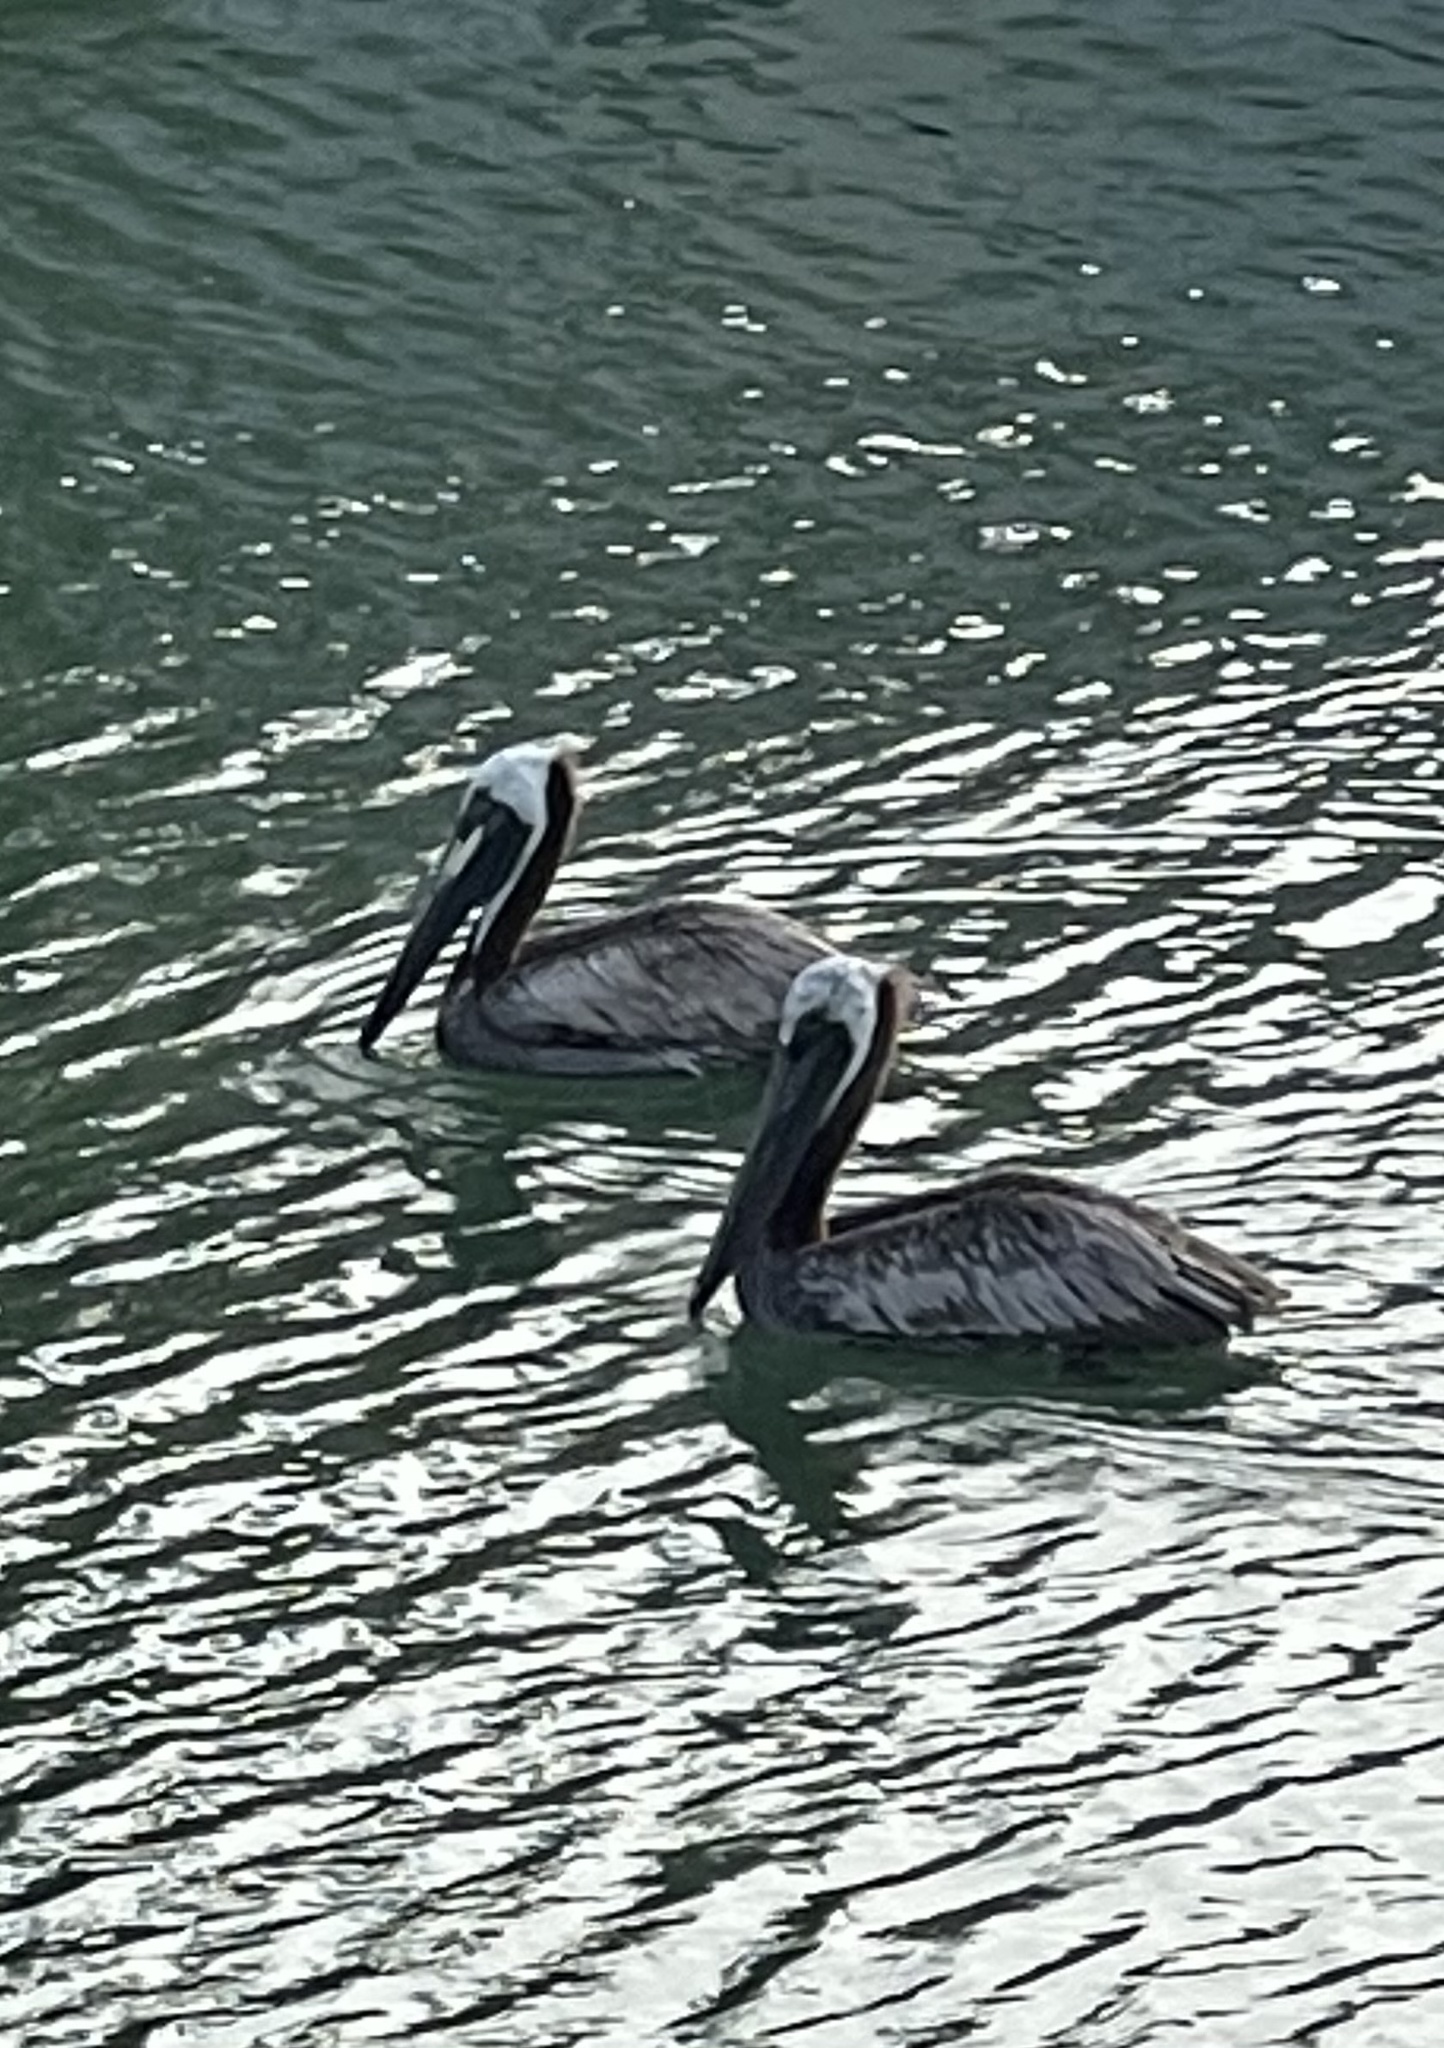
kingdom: Animalia
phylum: Chordata
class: Aves
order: Pelecaniformes
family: Pelecanidae
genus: Pelecanus
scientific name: Pelecanus occidentalis
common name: Brown pelican
